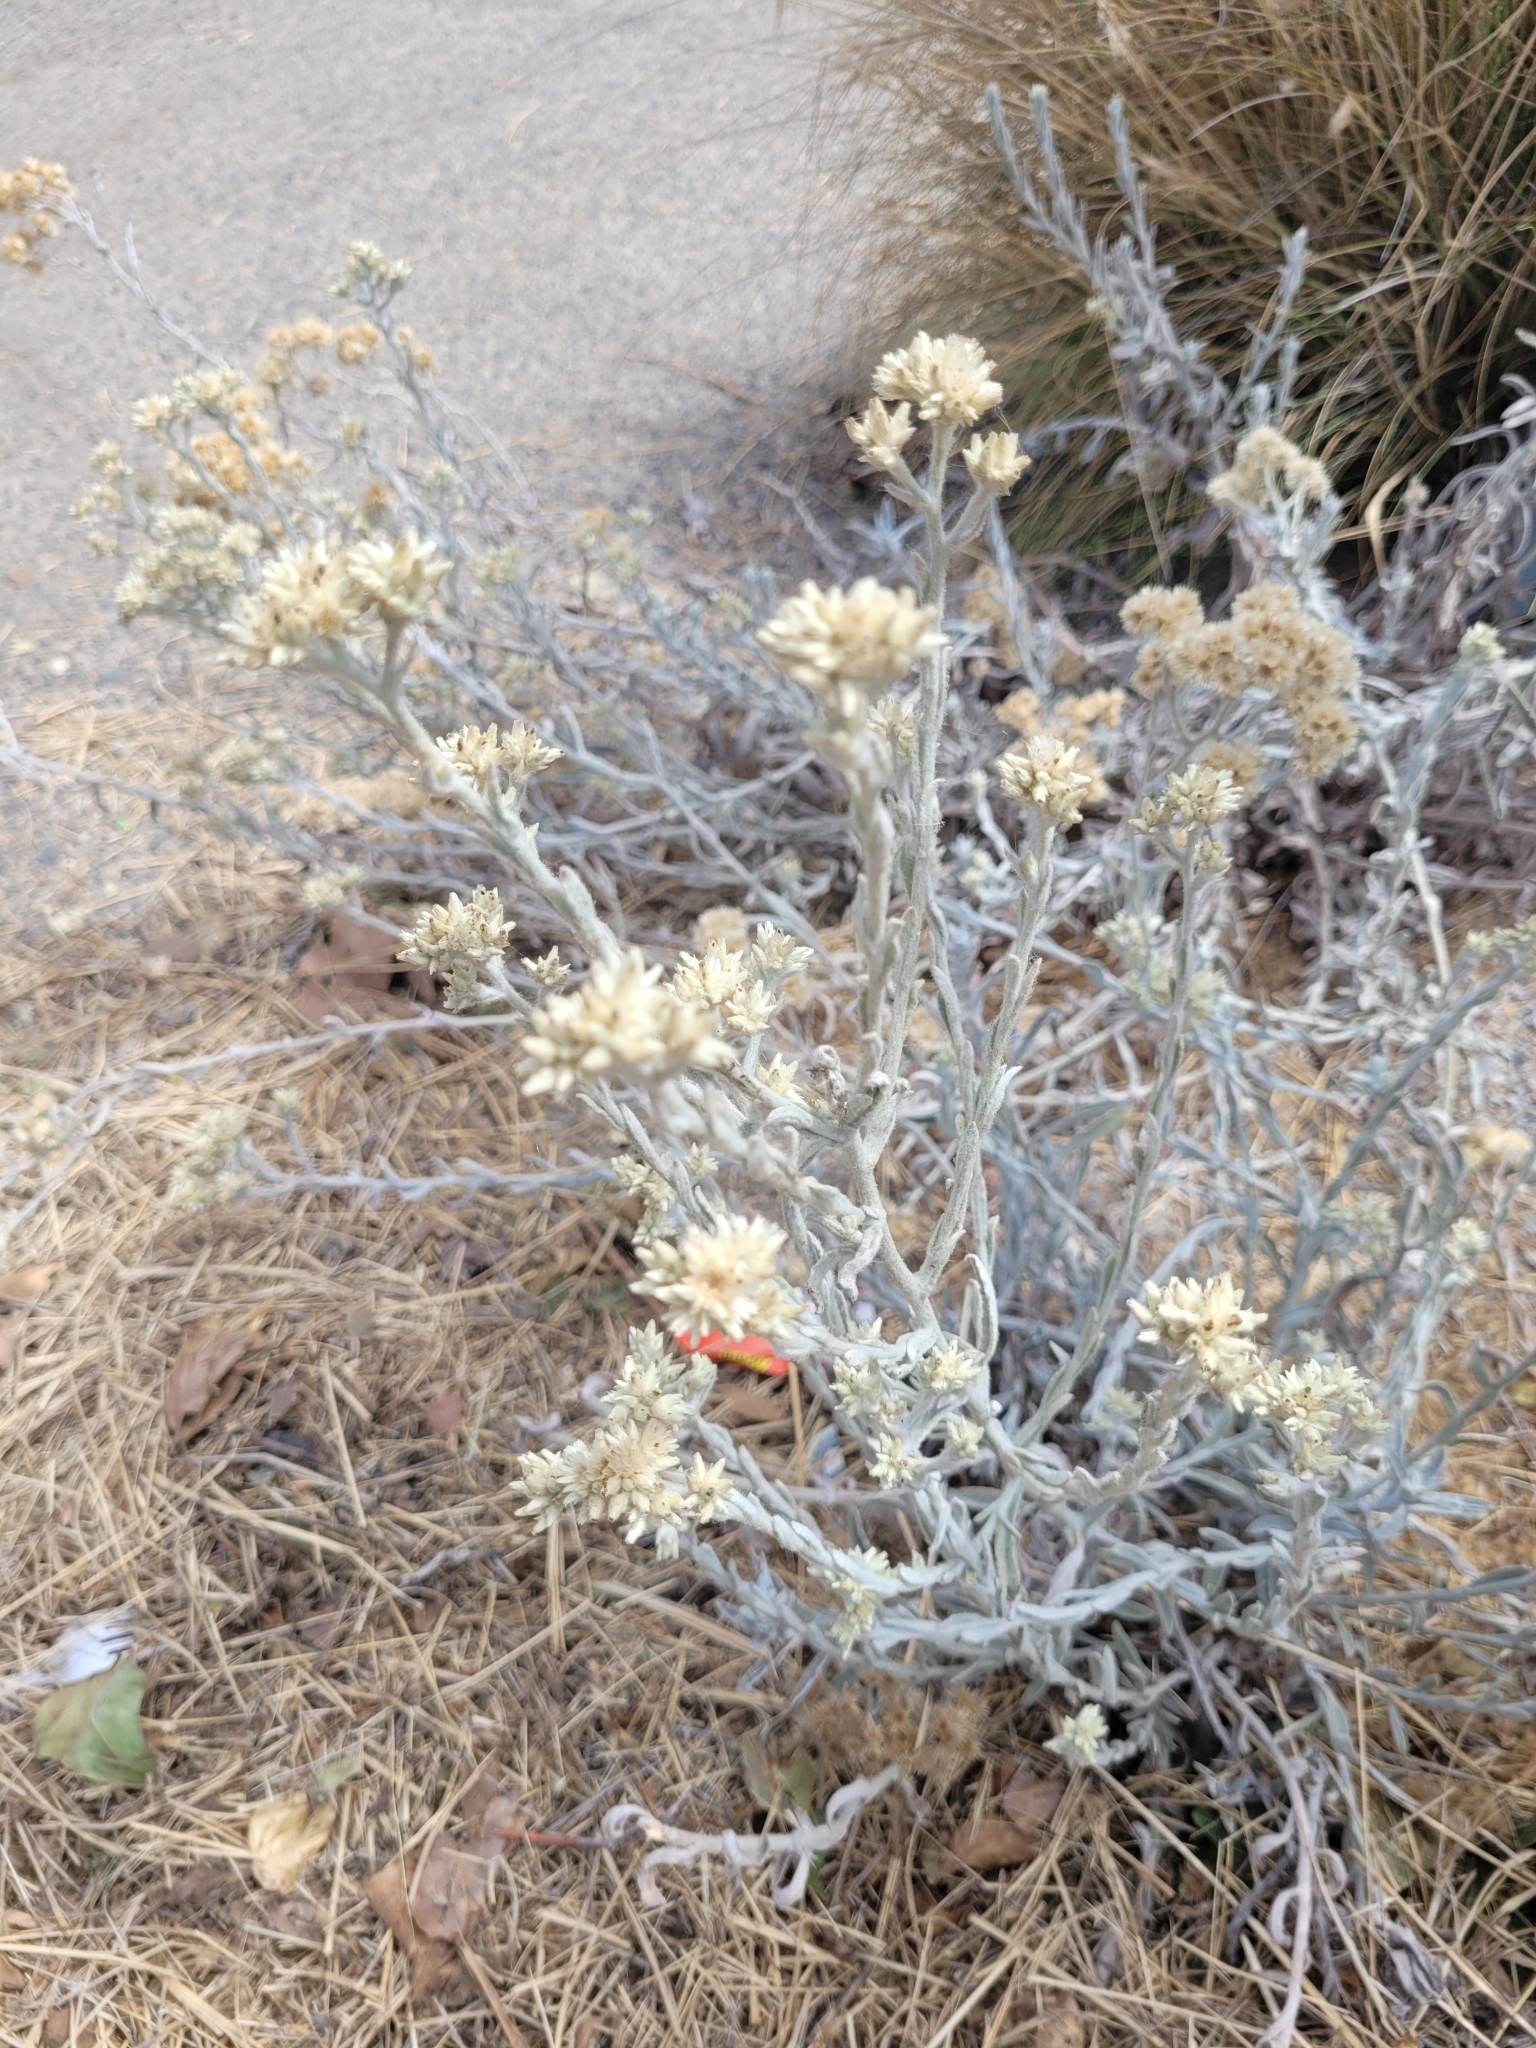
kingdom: Plantae
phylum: Tracheophyta
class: Magnoliopsida
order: Asterales
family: Asteraceae
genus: Pseudognaphalium
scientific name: Pseudognaphalium microcephalum
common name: San diego rabbit-tobacco
